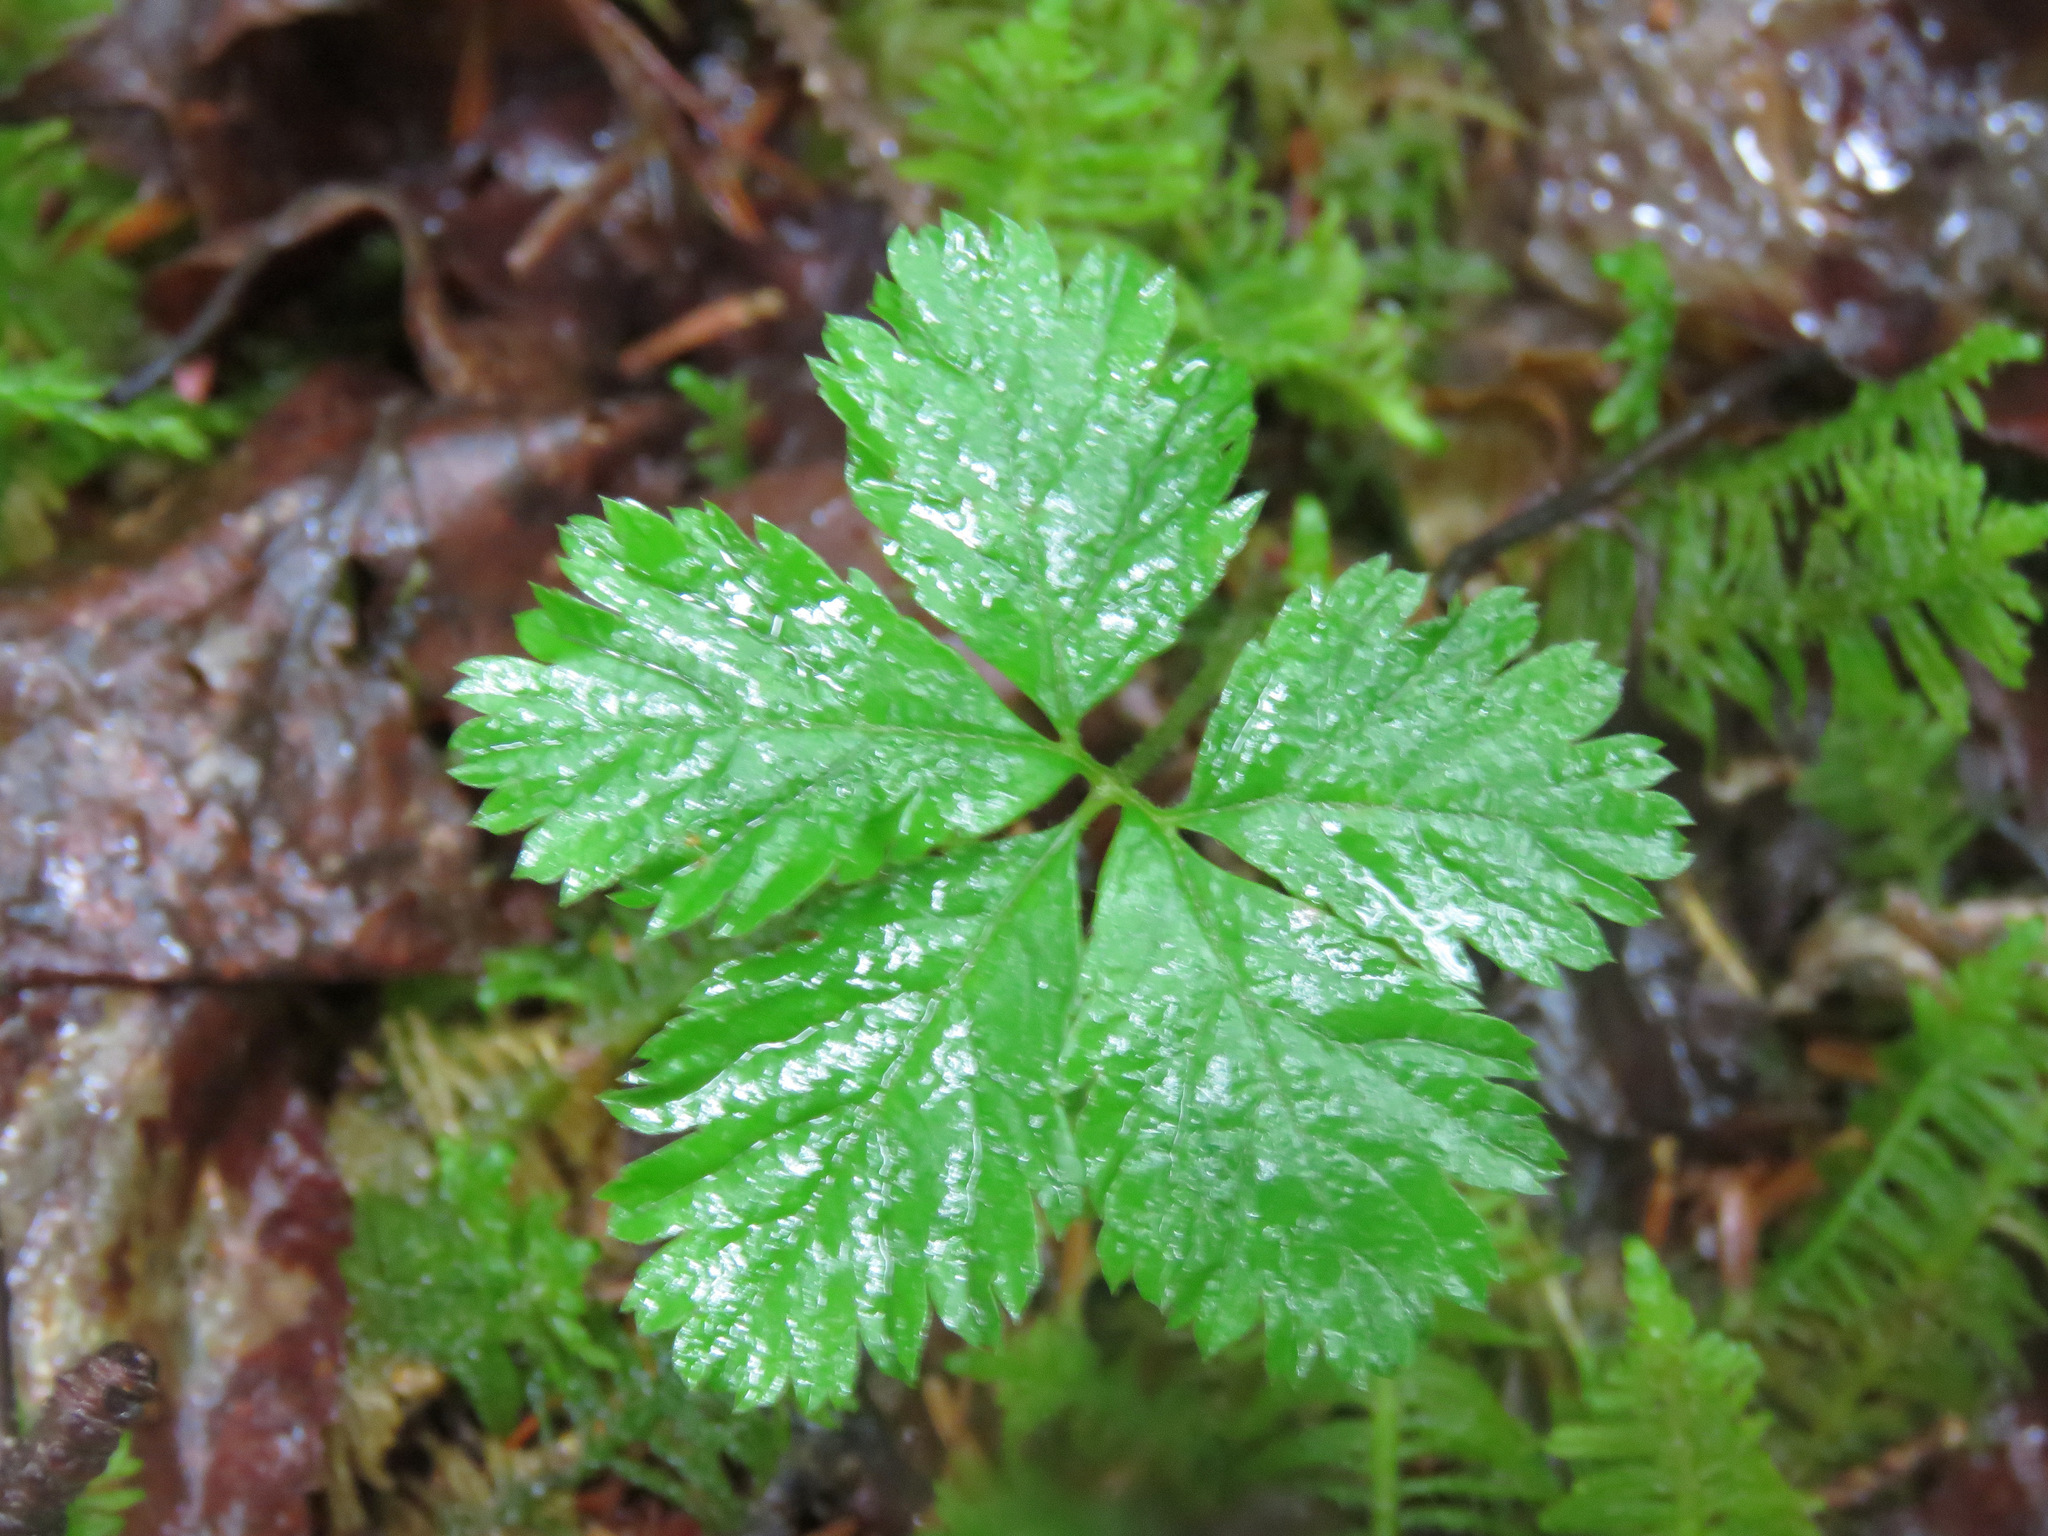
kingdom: Plantae
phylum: Tracheophyta
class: Magnoliopsida
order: Rosales
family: Rosaceae
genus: Rubus
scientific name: Rubus pedatus
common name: Creeping raspberry
